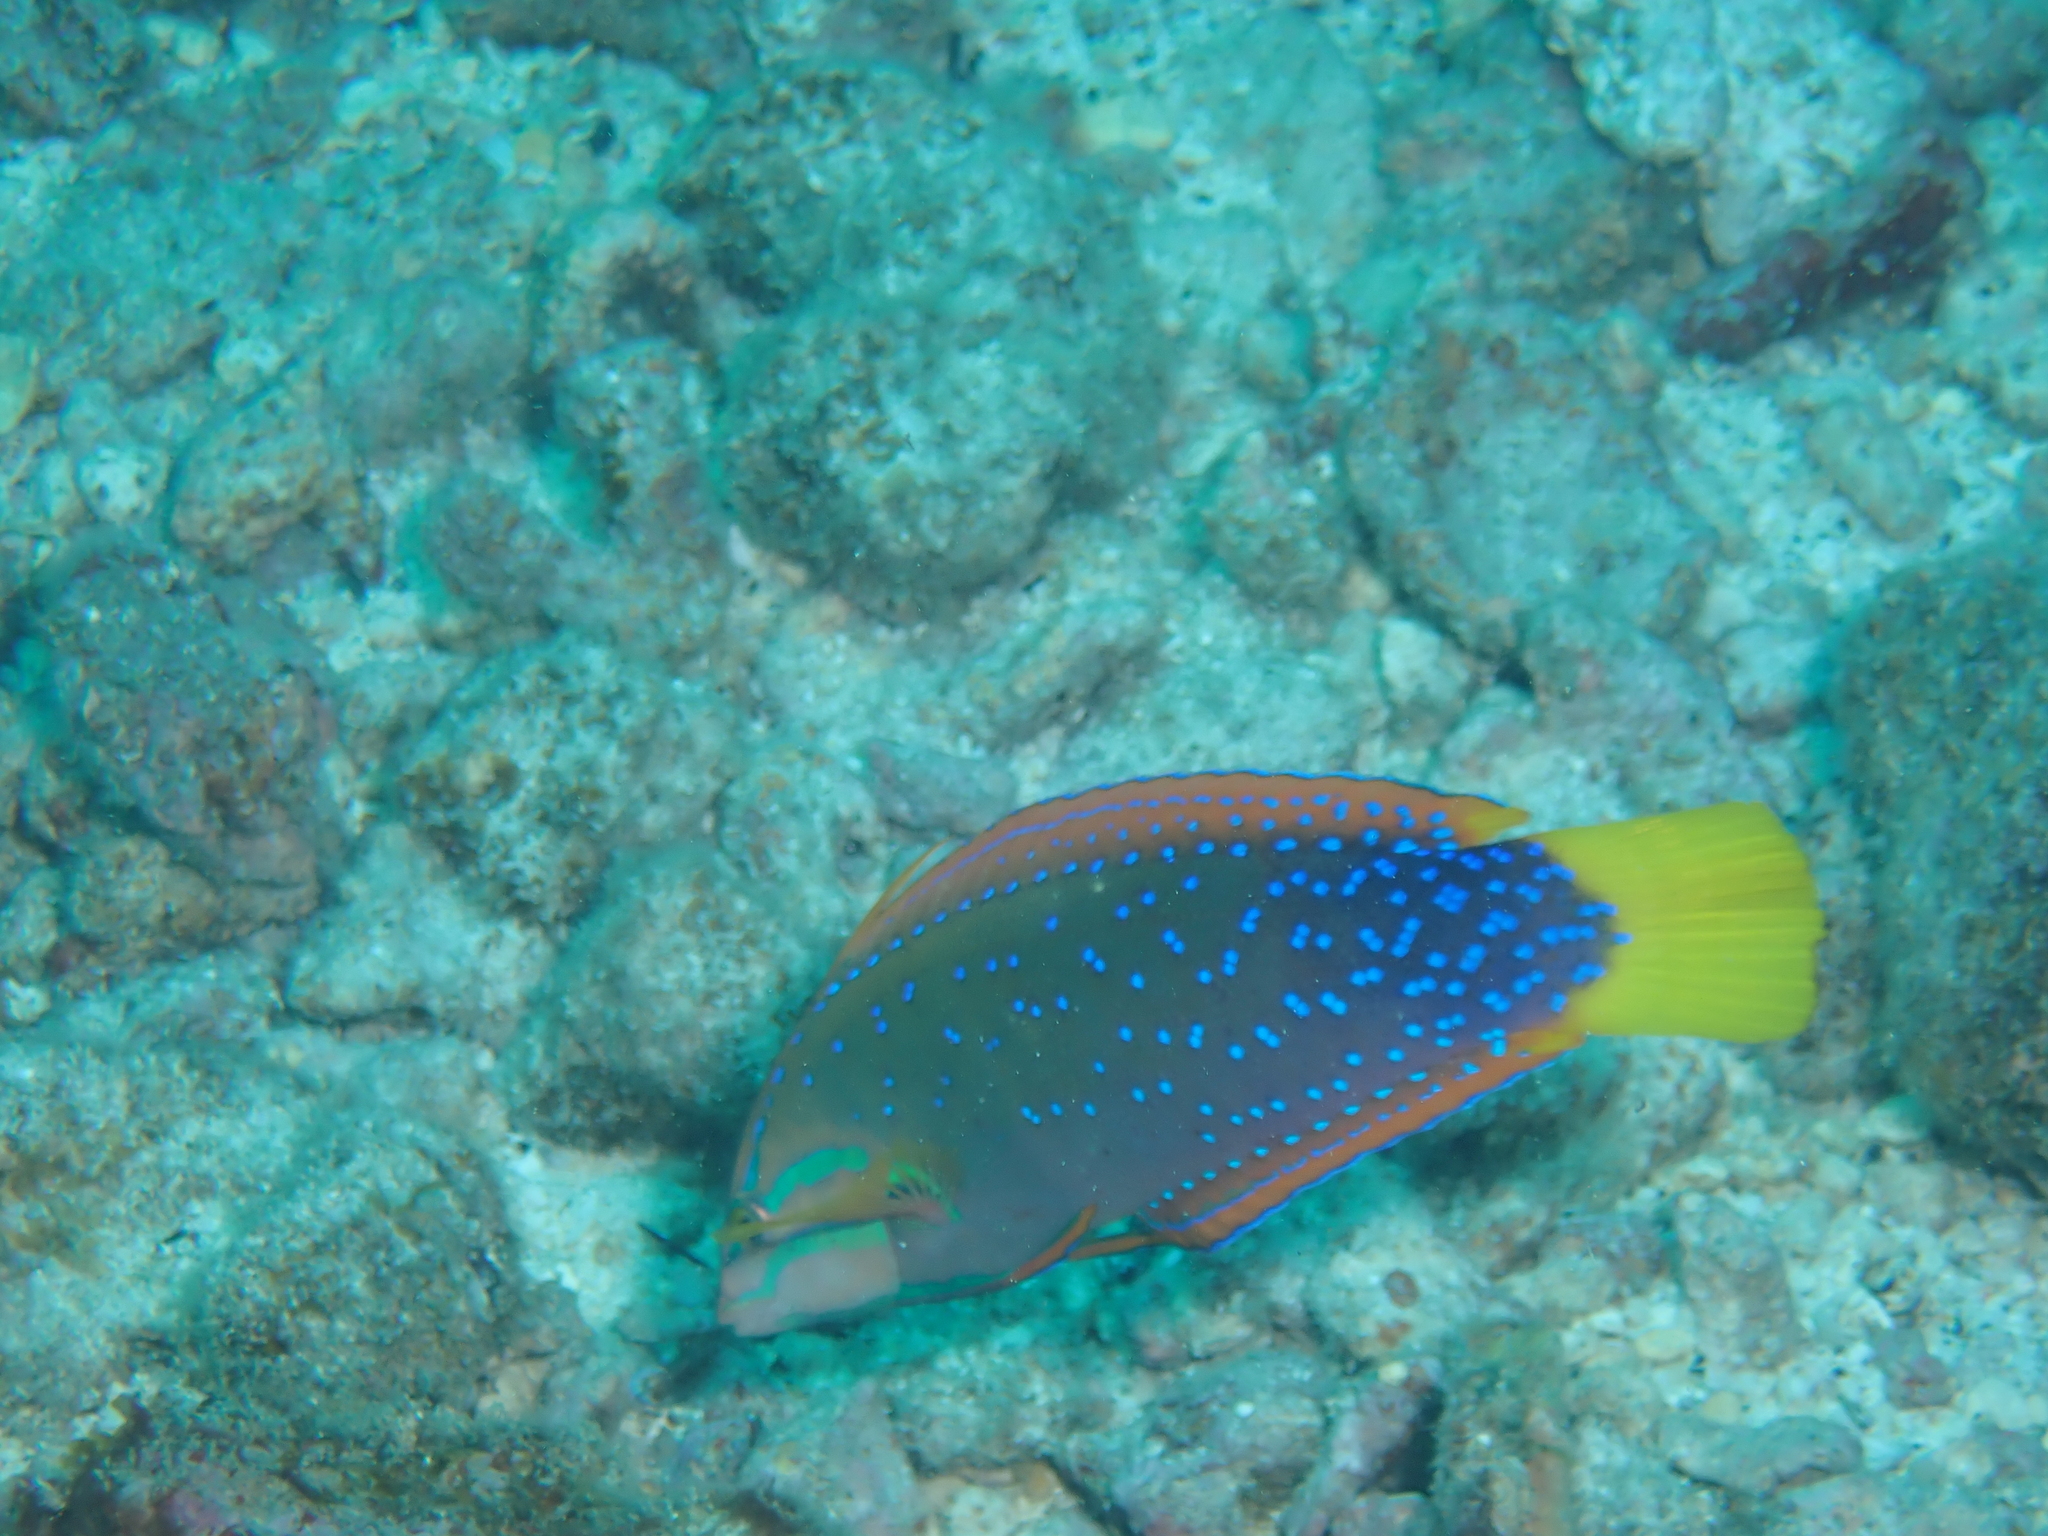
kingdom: Animalia
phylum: Chordata
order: Perciformes
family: Labridae
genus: Coris
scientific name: Coris gaimard
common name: Yellowtail coris
